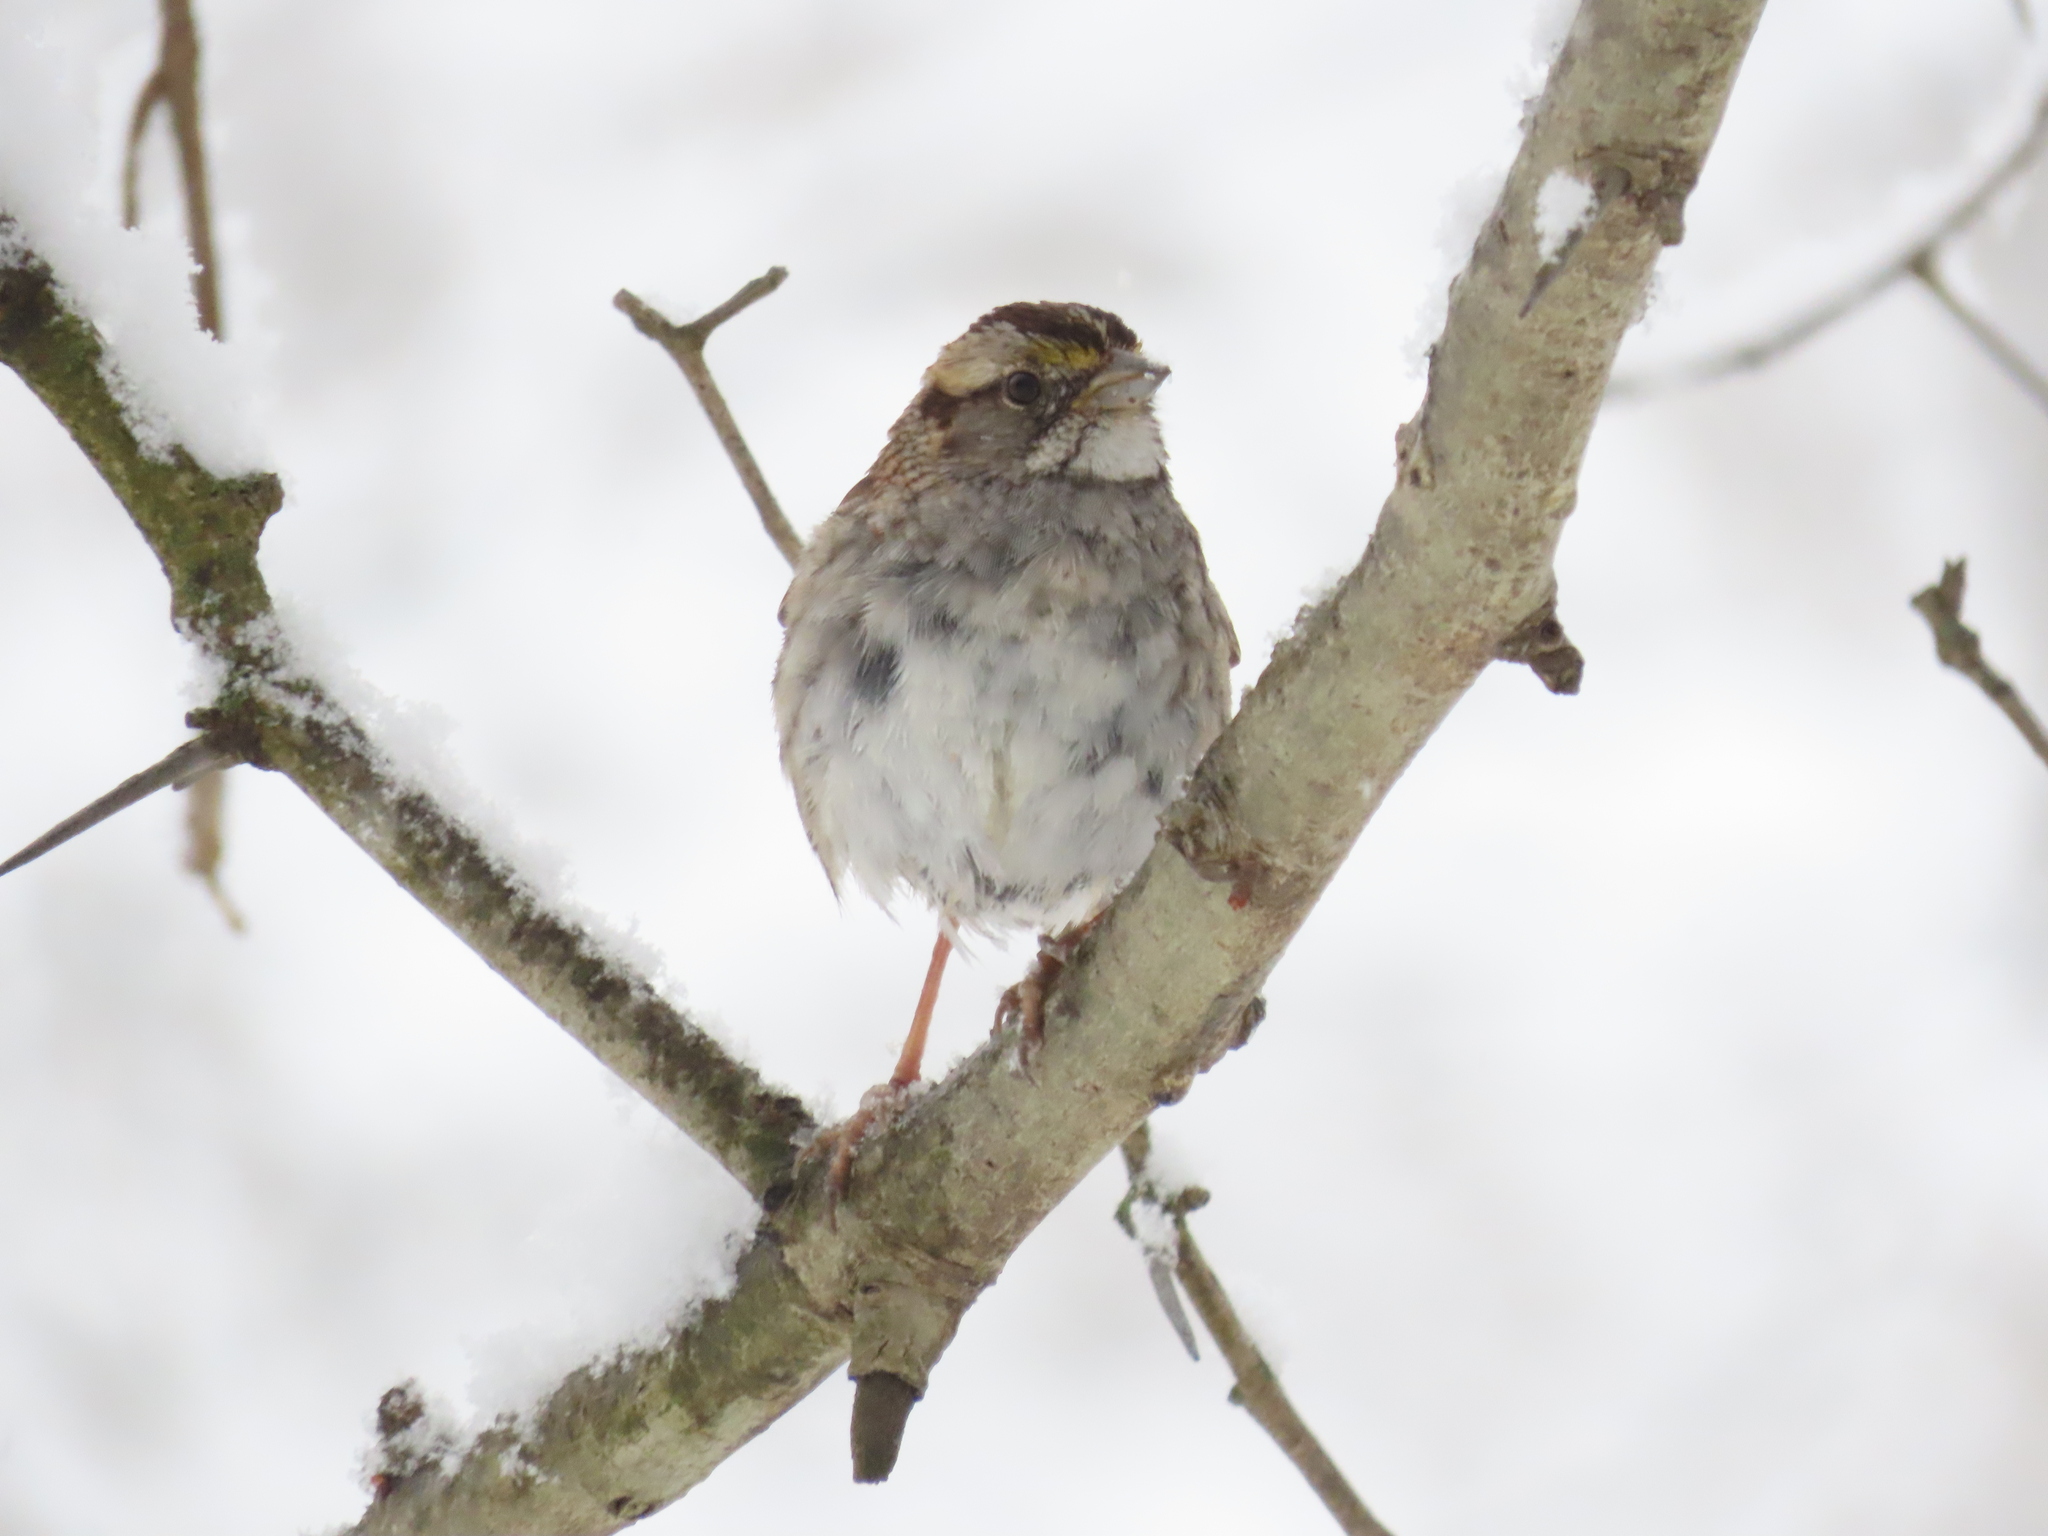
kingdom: Animalia
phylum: Chordata
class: Aves
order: Passeriformes
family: Passerellidae
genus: Zonotrichia
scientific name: Zonotrichia albicollis
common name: White-throated sparrow
